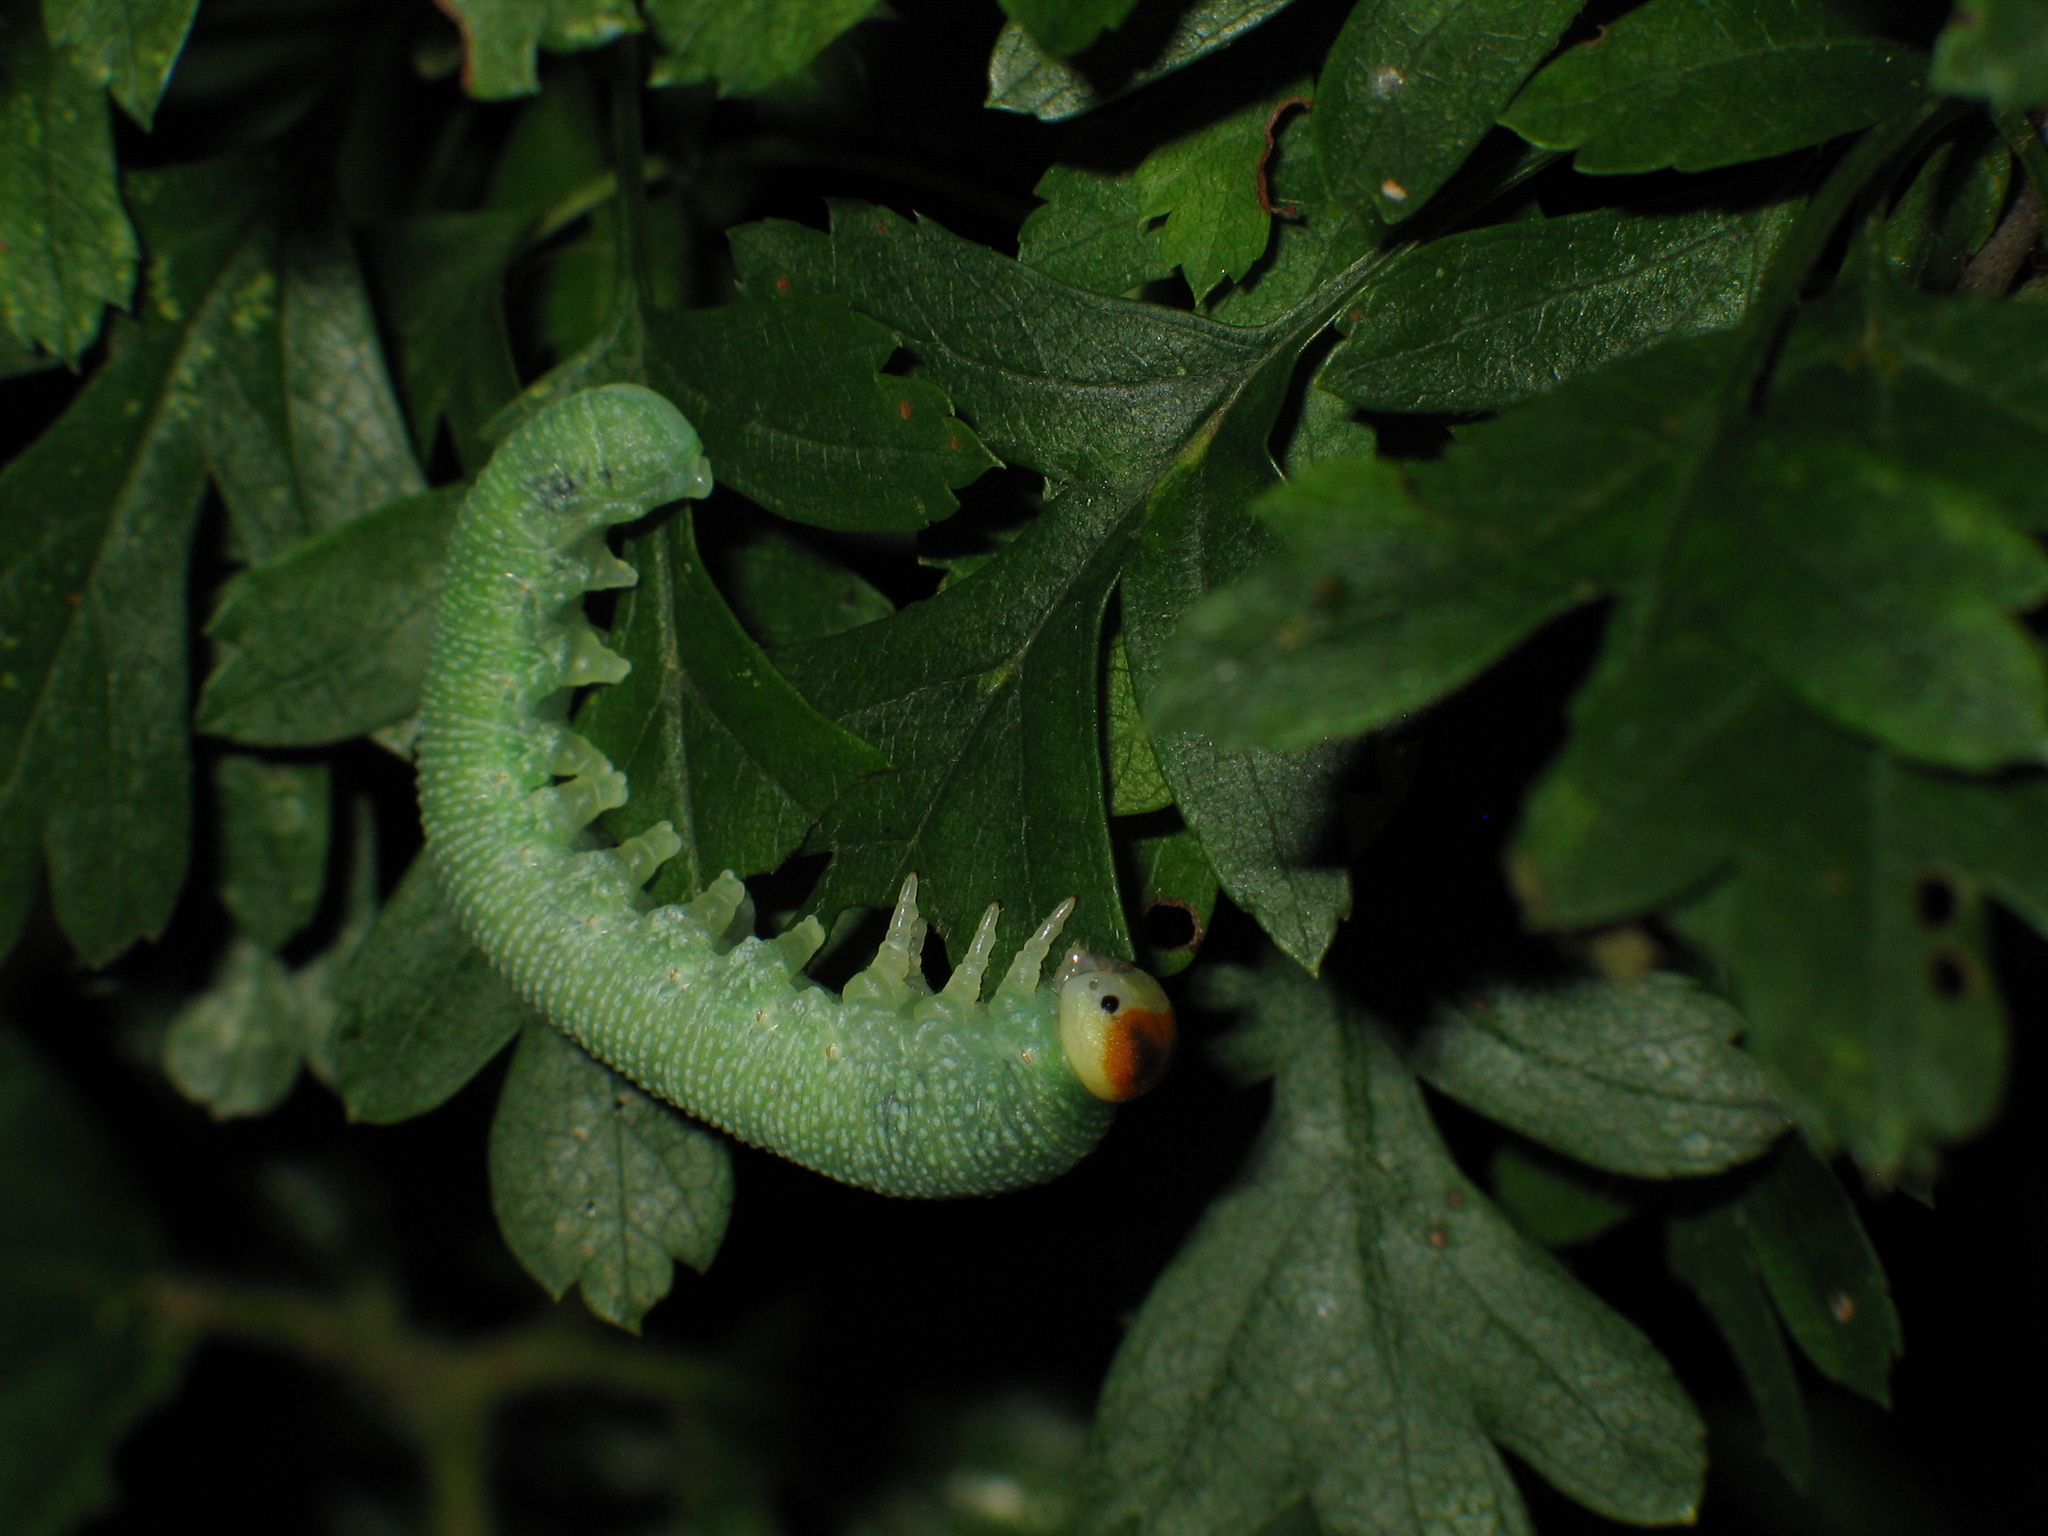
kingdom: Animalia
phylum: Arthropoda
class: Insecta
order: Hymenoptera
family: Cimbicidae
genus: Trichiosoma
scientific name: Trichiosoma
